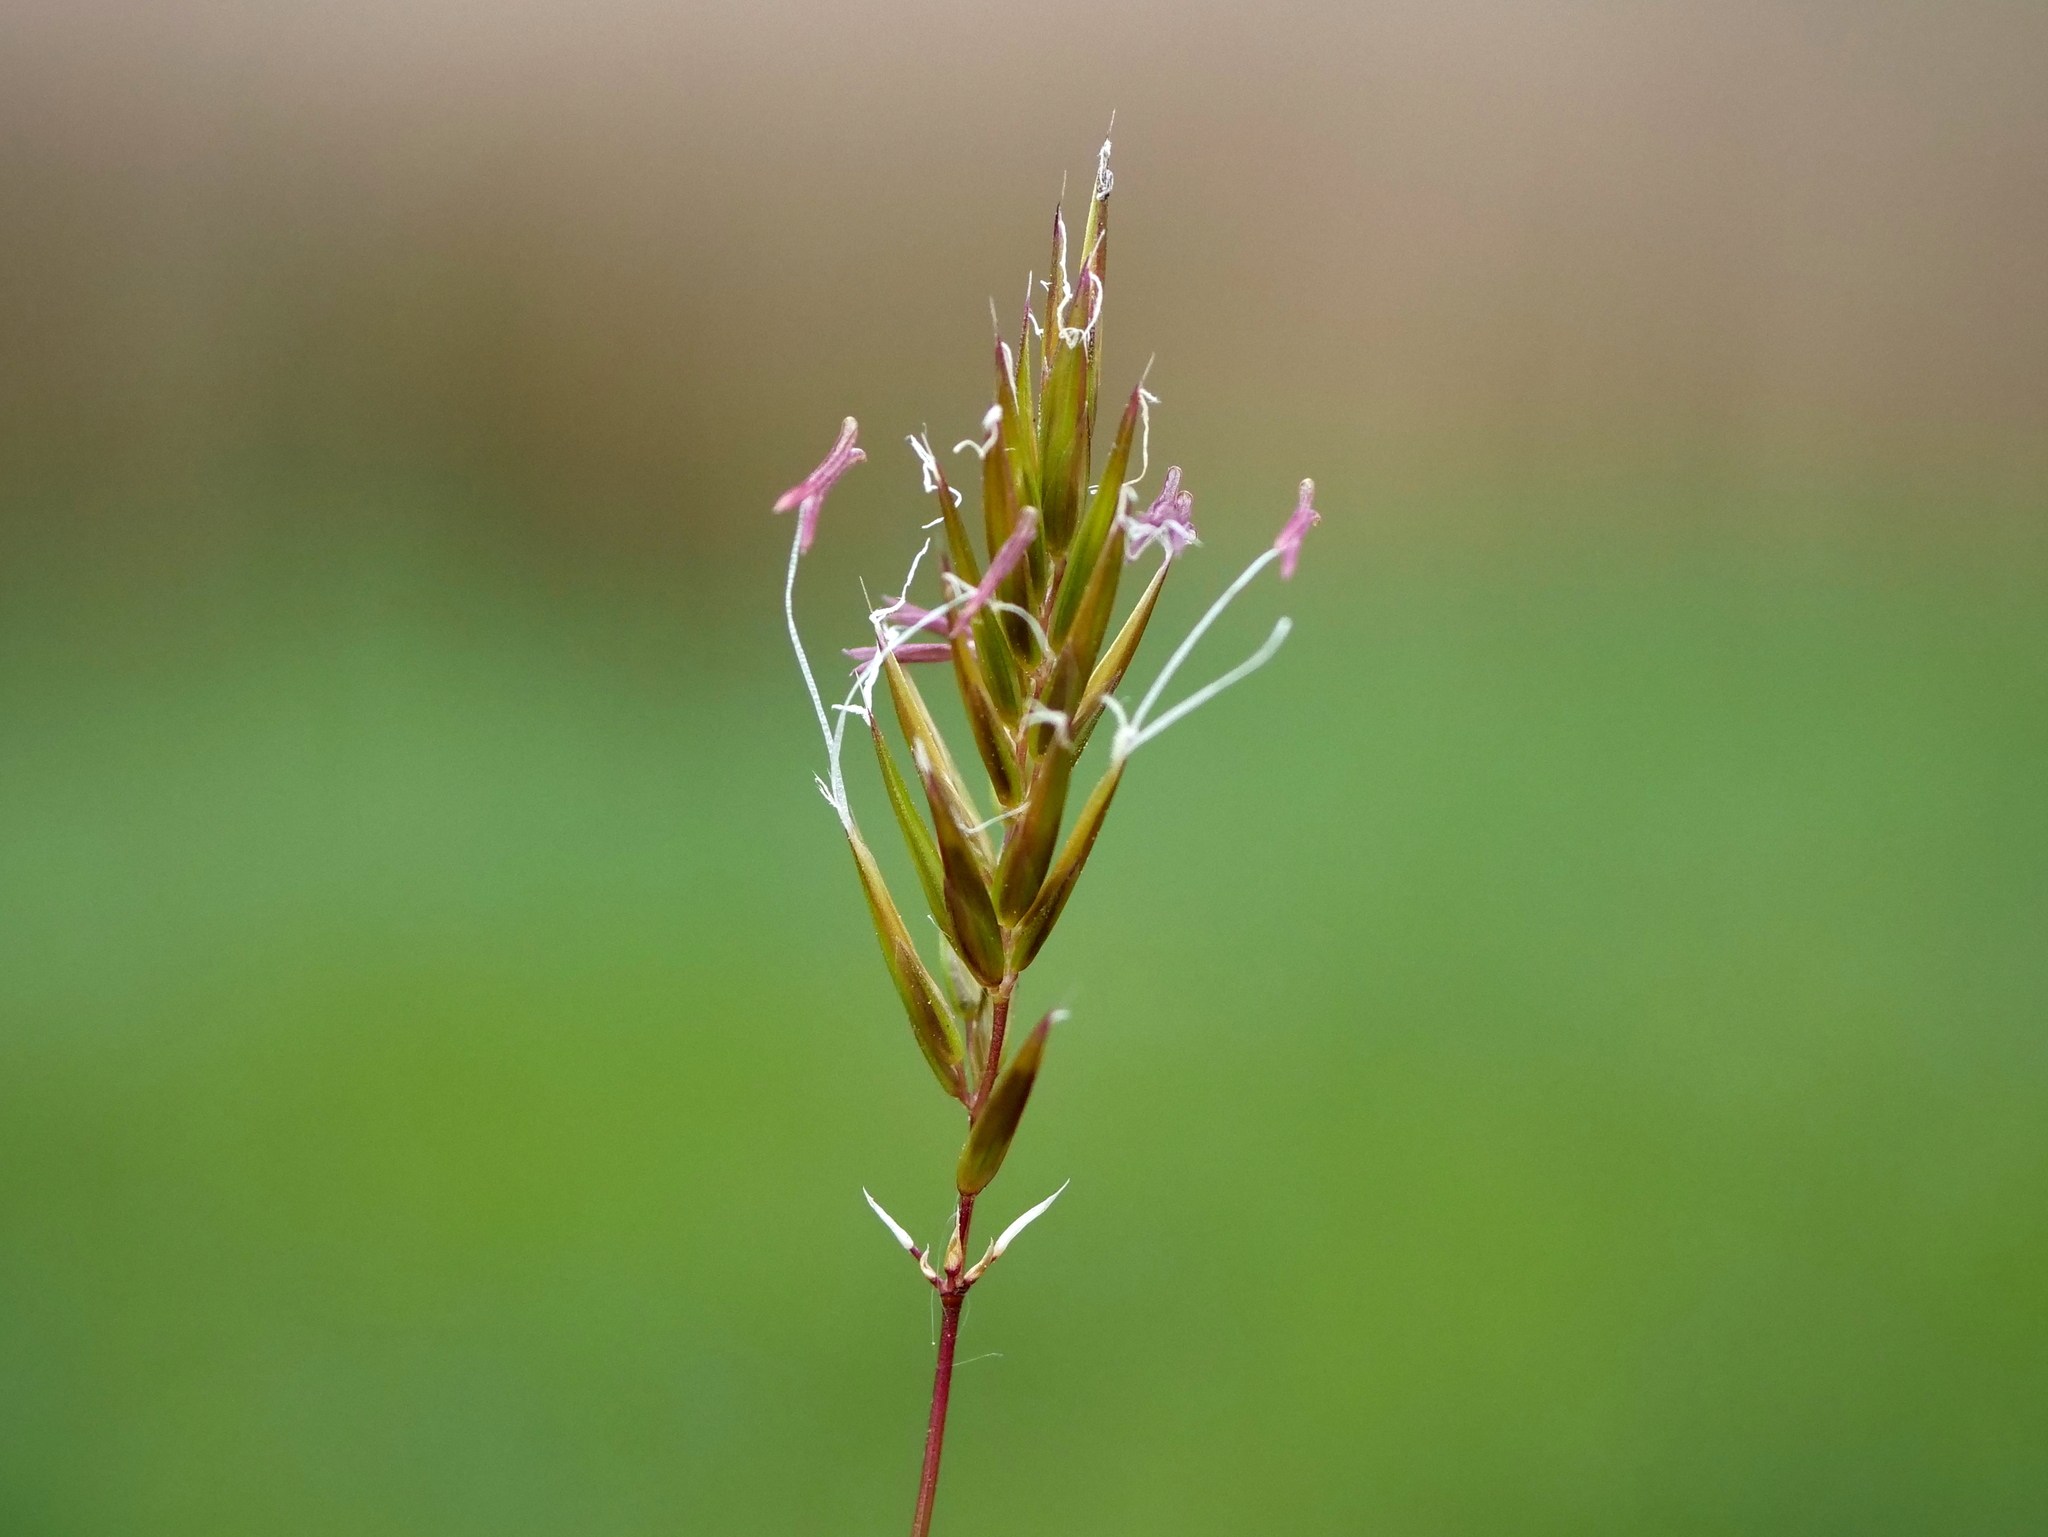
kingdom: Plantae
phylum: Tracheophyta
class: Liliopsida
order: Poales
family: Poaceae
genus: Anthoxanthum
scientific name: Anthoxanthum odoratum
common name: Sweet vernalgrass
